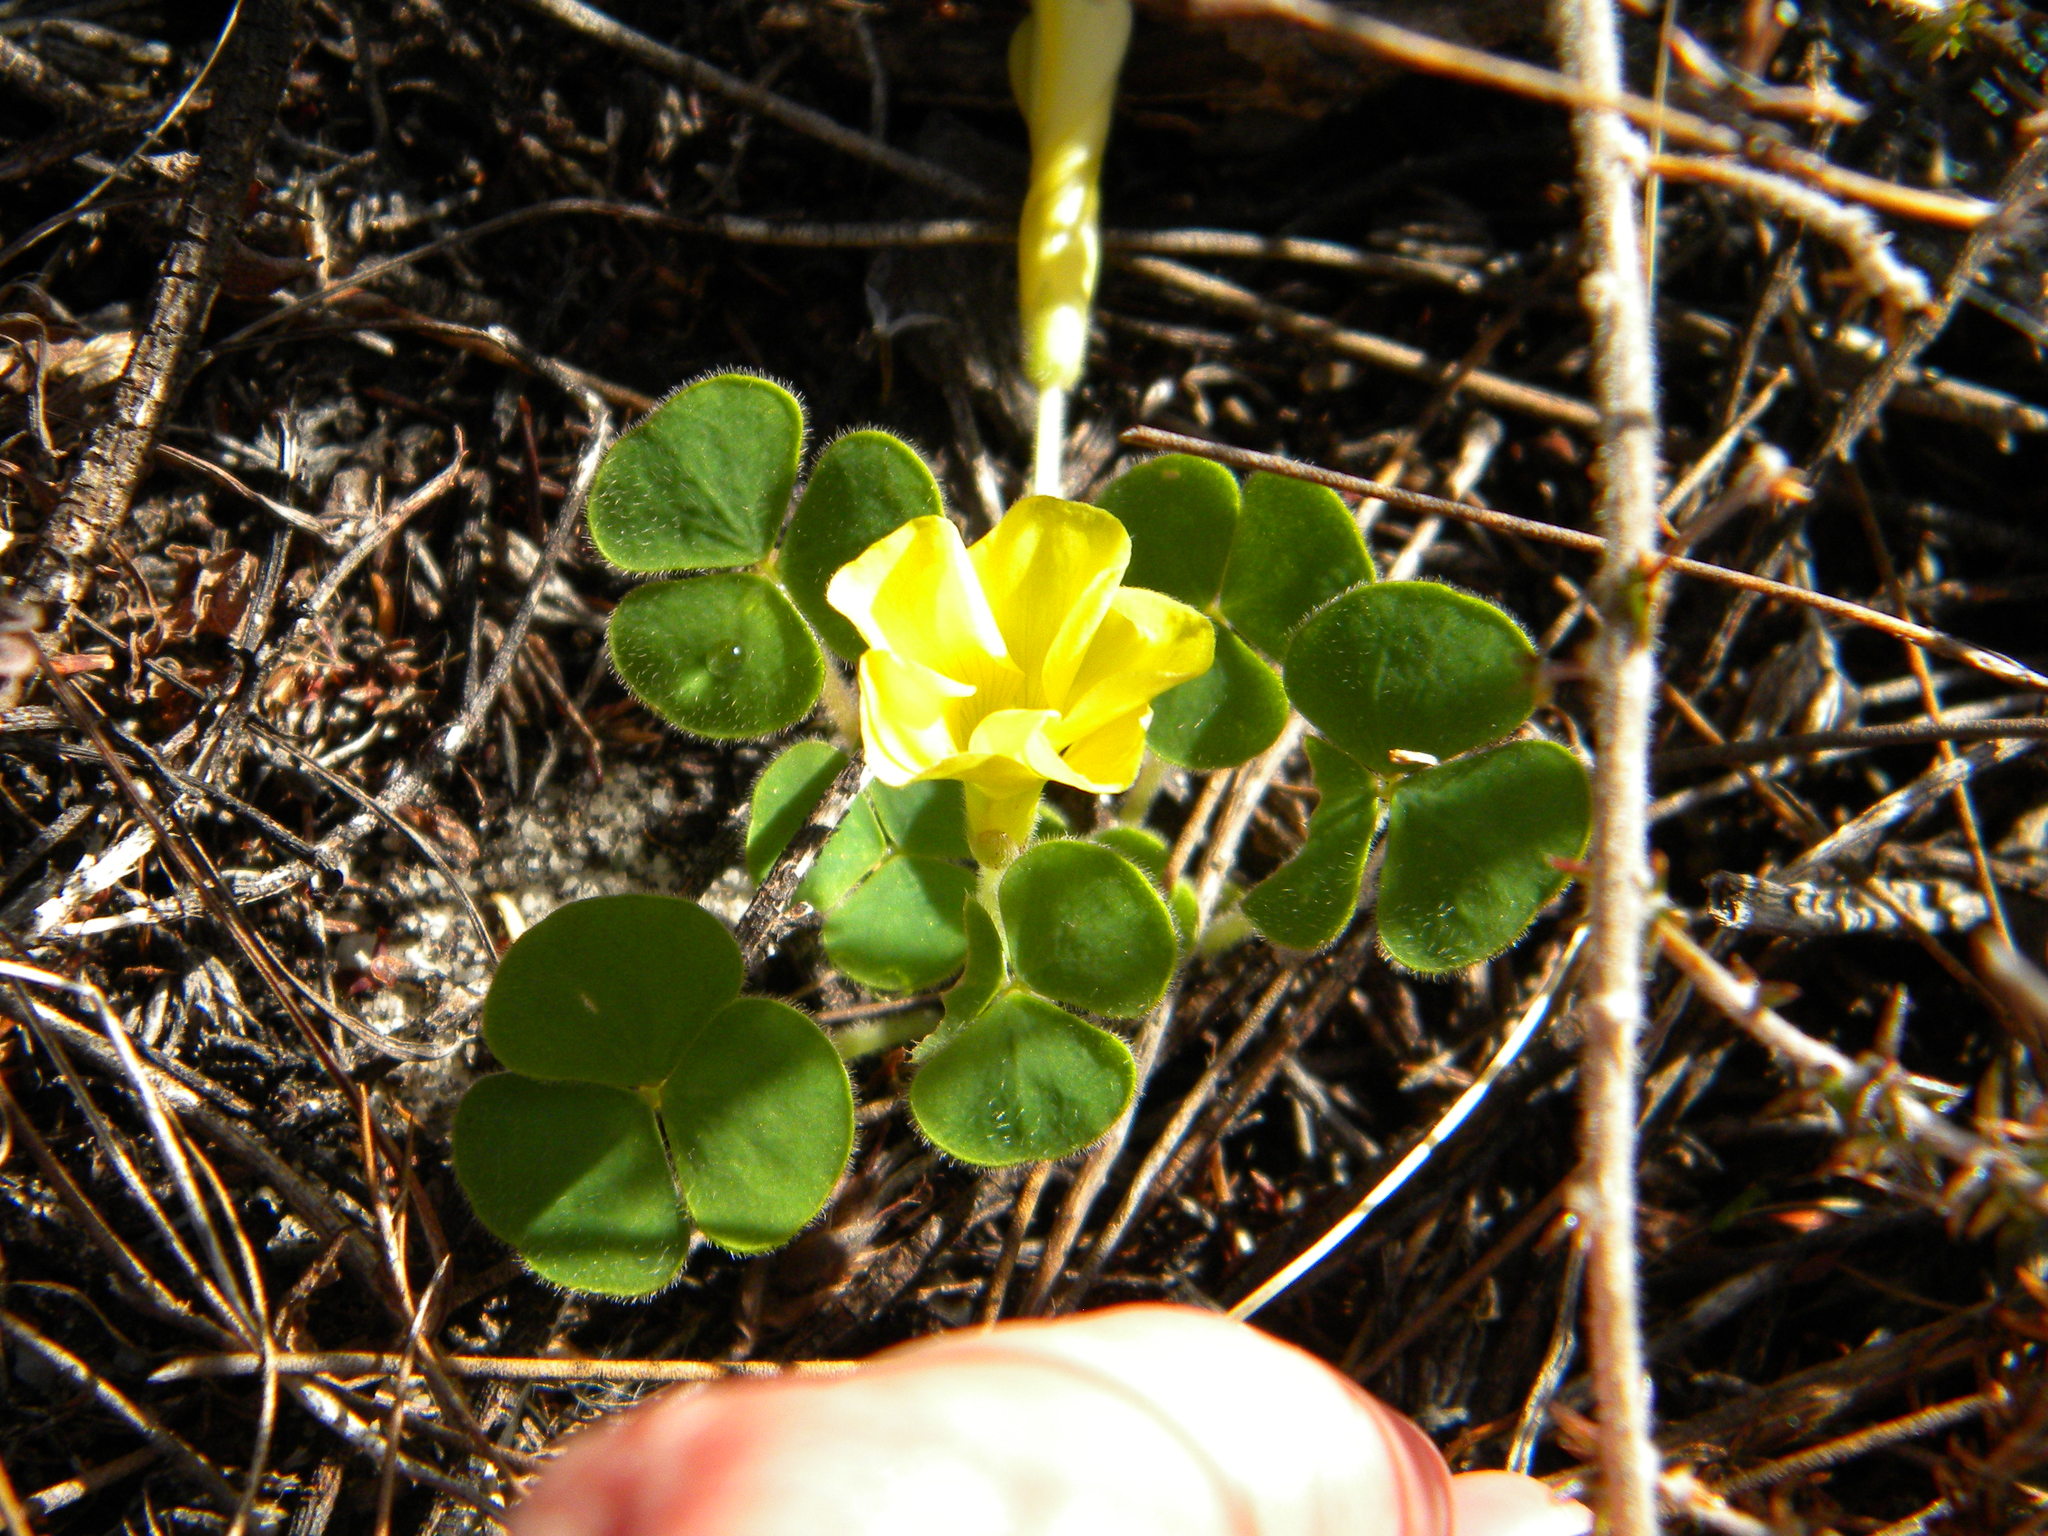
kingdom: Plantae
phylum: Tracheophyta
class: Magnoliopsida
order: Oxalidales
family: Oxalidaceae
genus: Oxalis
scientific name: Oxalis luteola
